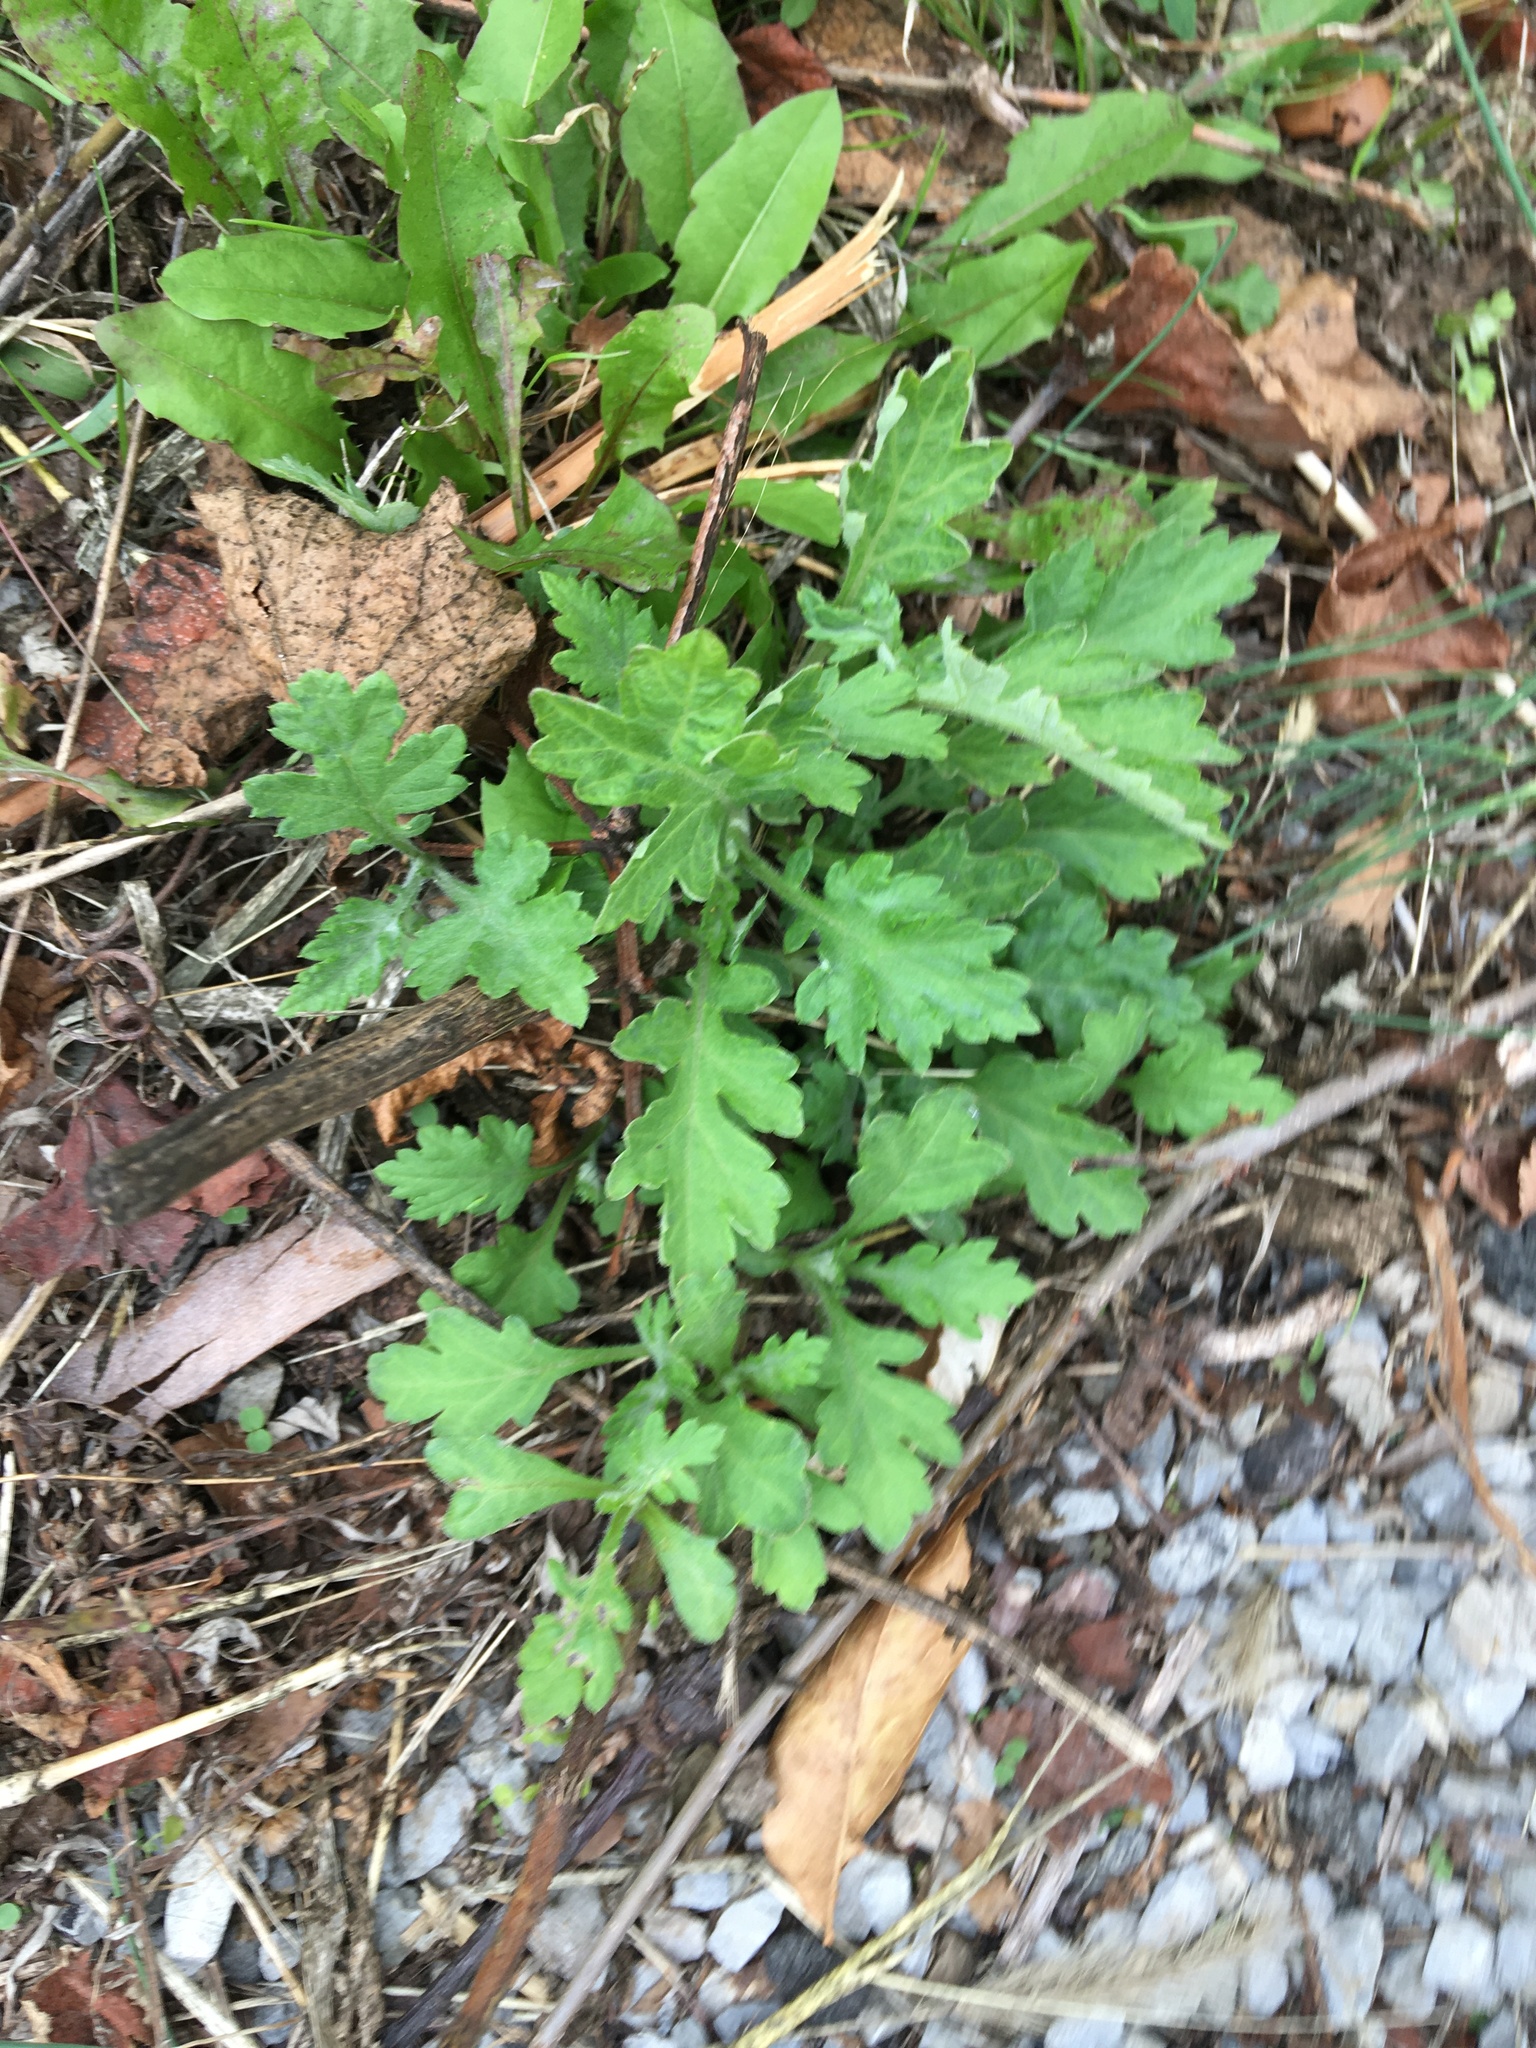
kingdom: Plantae
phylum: Tracheophyta
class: Magnoliopsida
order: Asterales
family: Asteraceae
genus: Artemisia
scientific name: Artemisia vulgaris
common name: Mugwort
